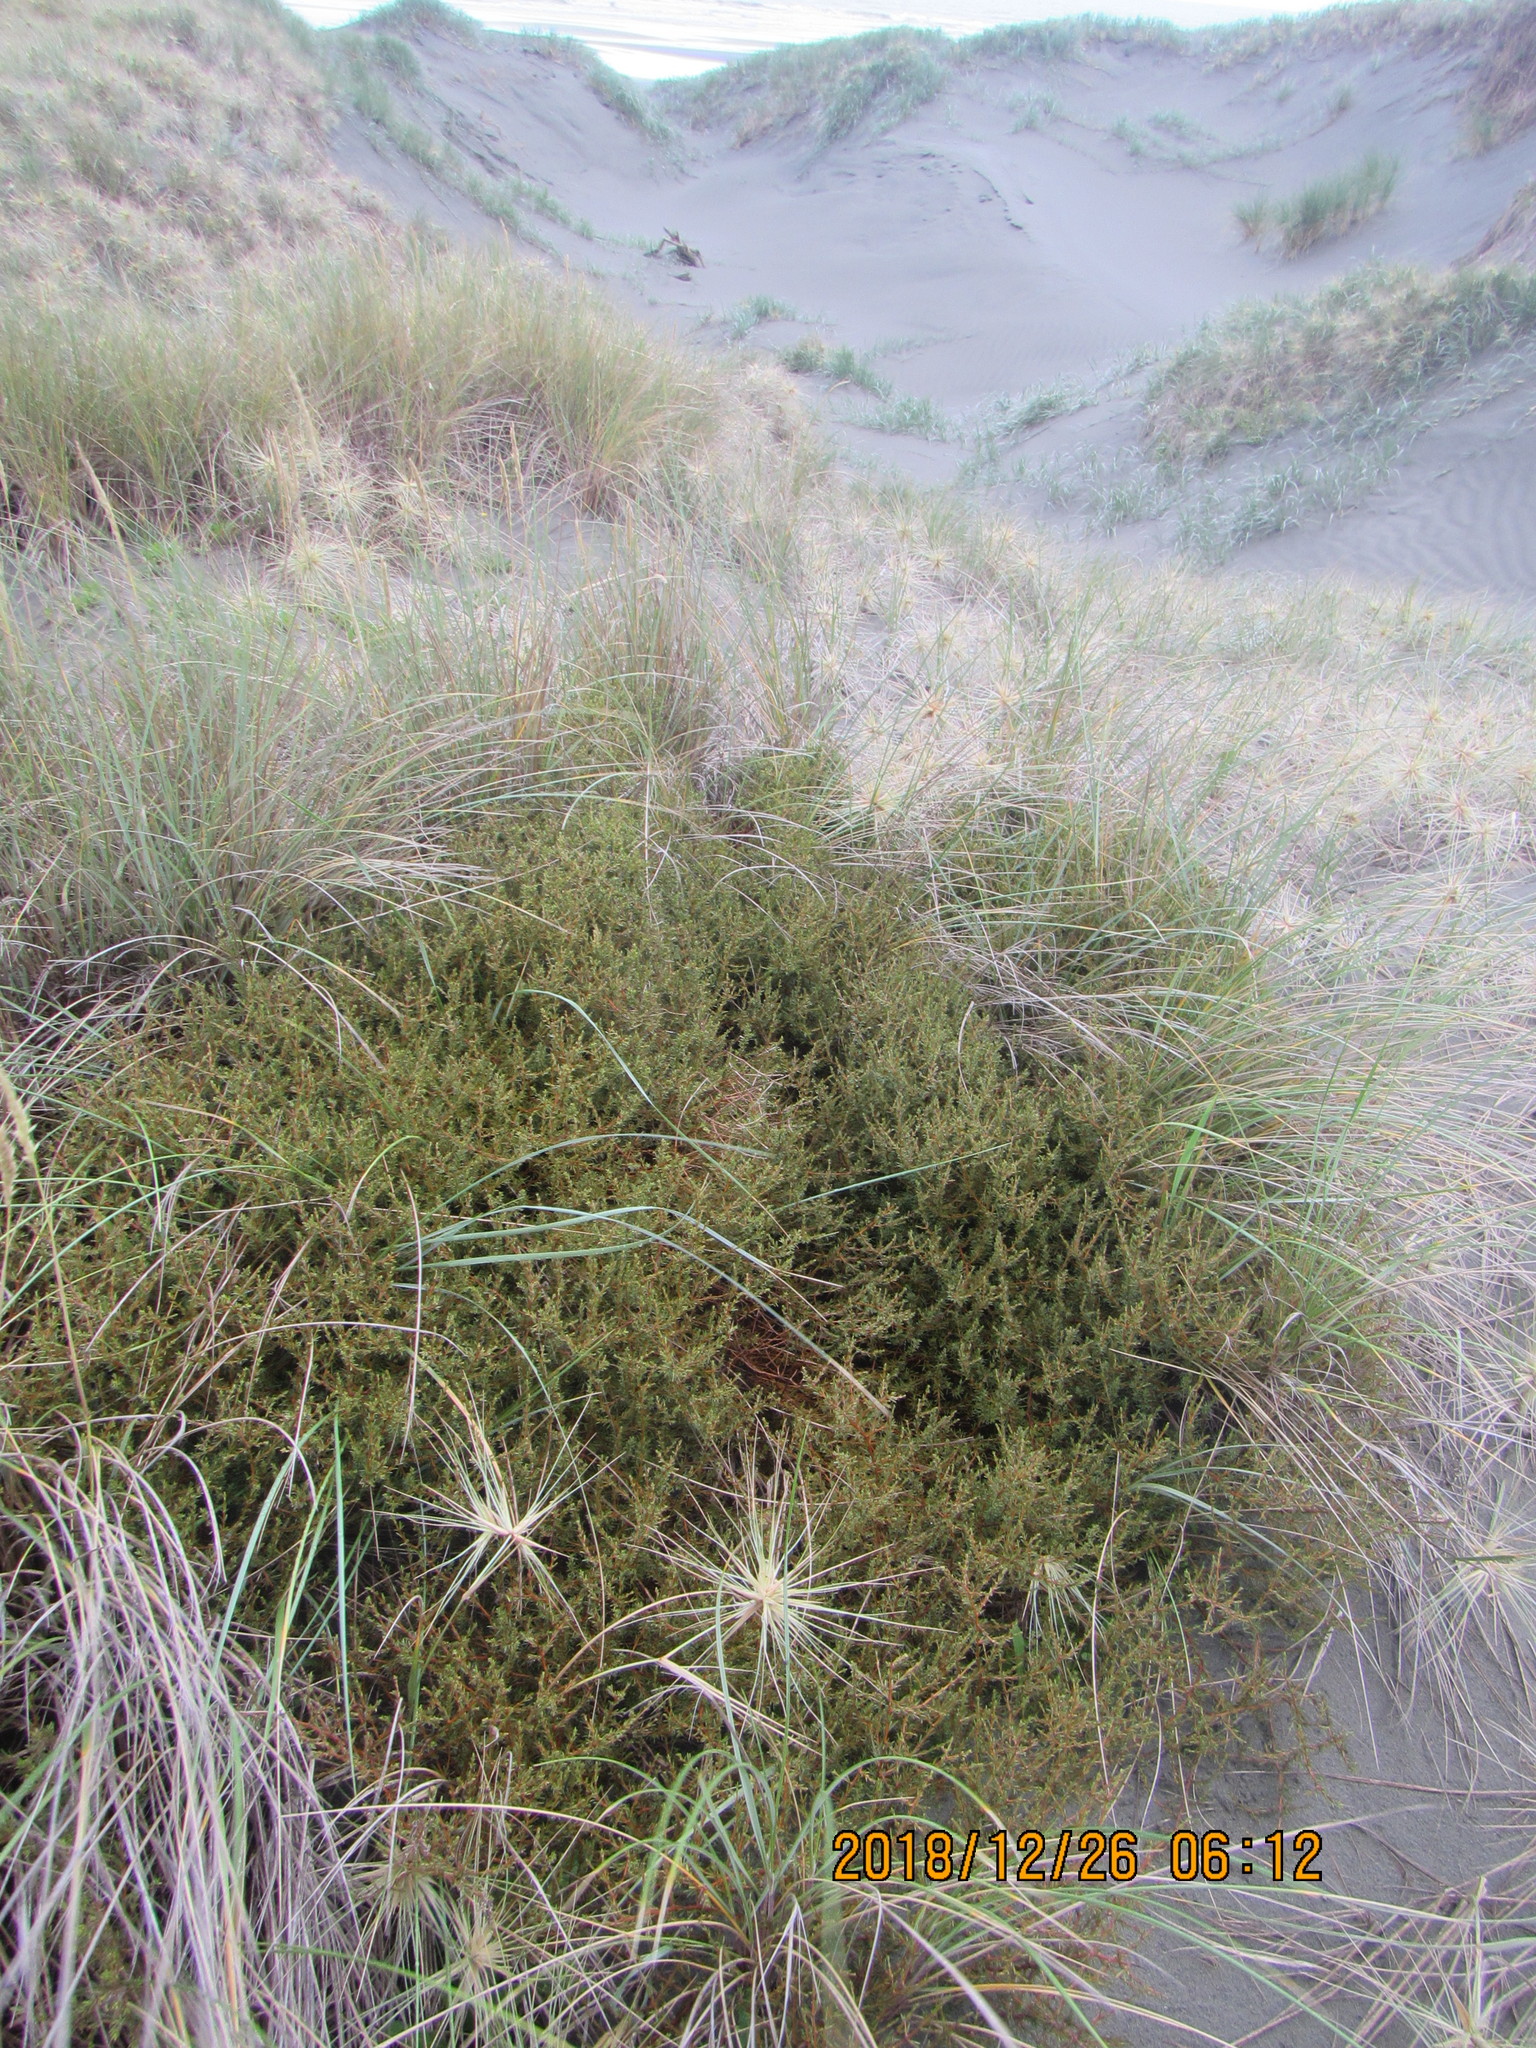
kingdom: Plantae
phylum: Tracheophyta
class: Magnoliopsida
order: Gentianales
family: Rubiaceae
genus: Coprosma
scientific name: Coprosma acerosa
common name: Sand coprosma
